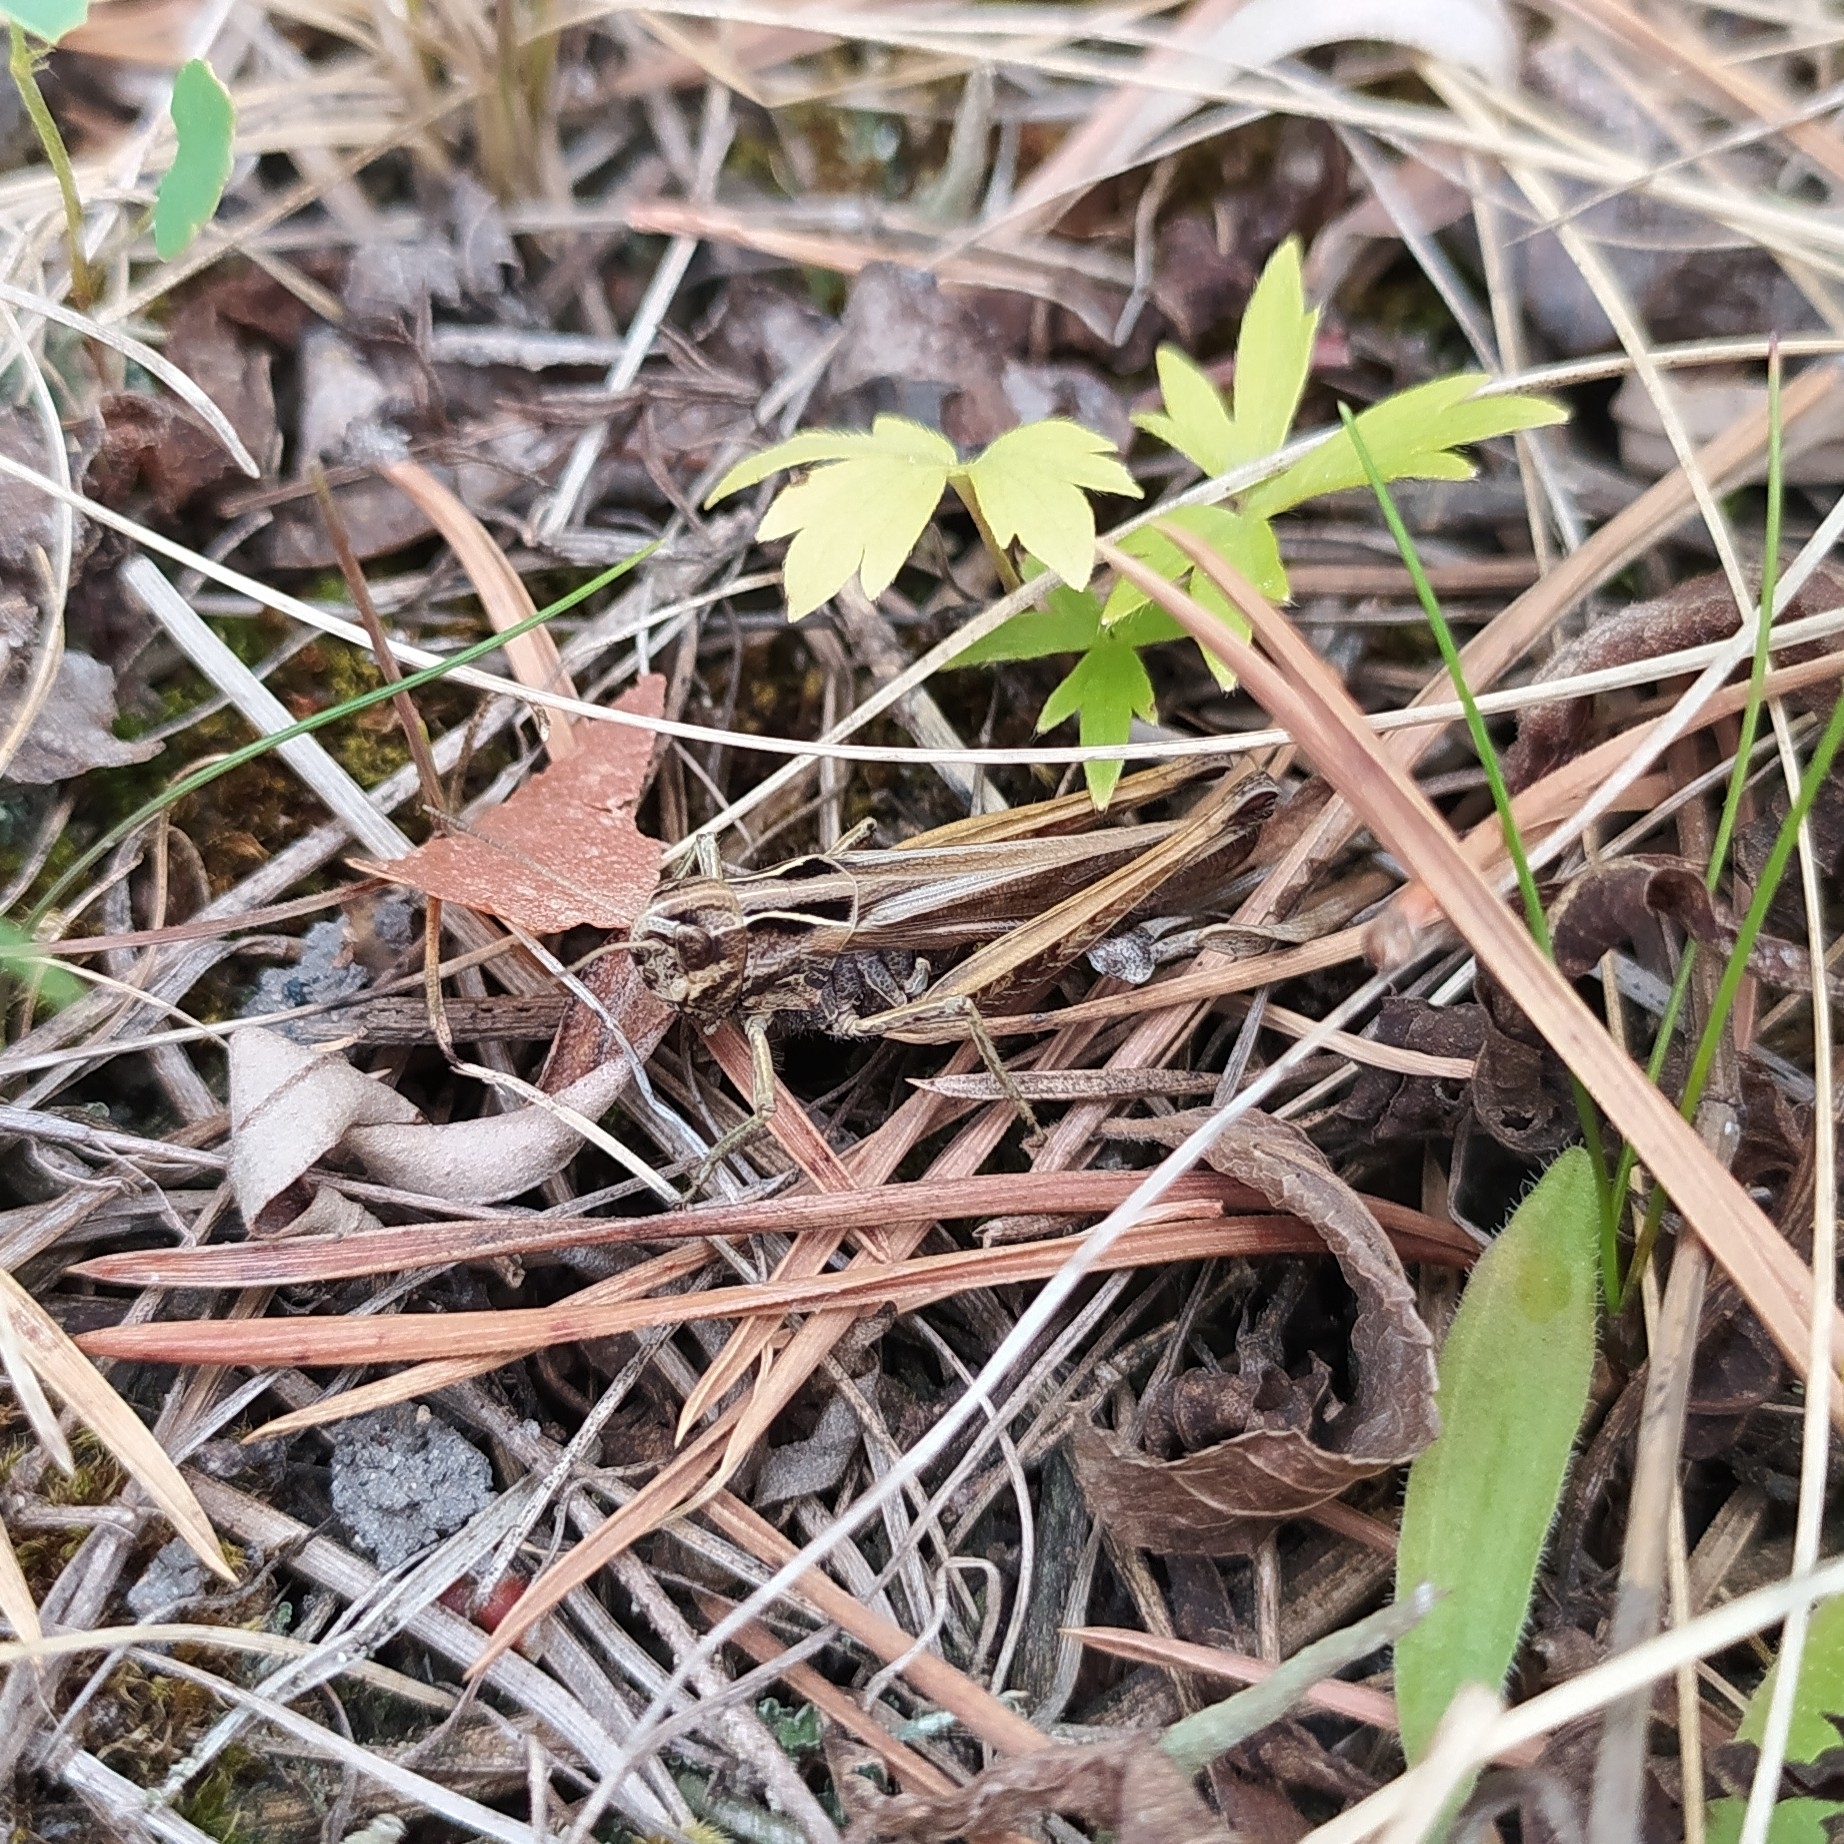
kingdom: Animalia
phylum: Arthropoda
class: Insecta
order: Orthoptera
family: Acrididae
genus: Omocestus
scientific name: Omocestus rufipes
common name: Woodland grasshopper
